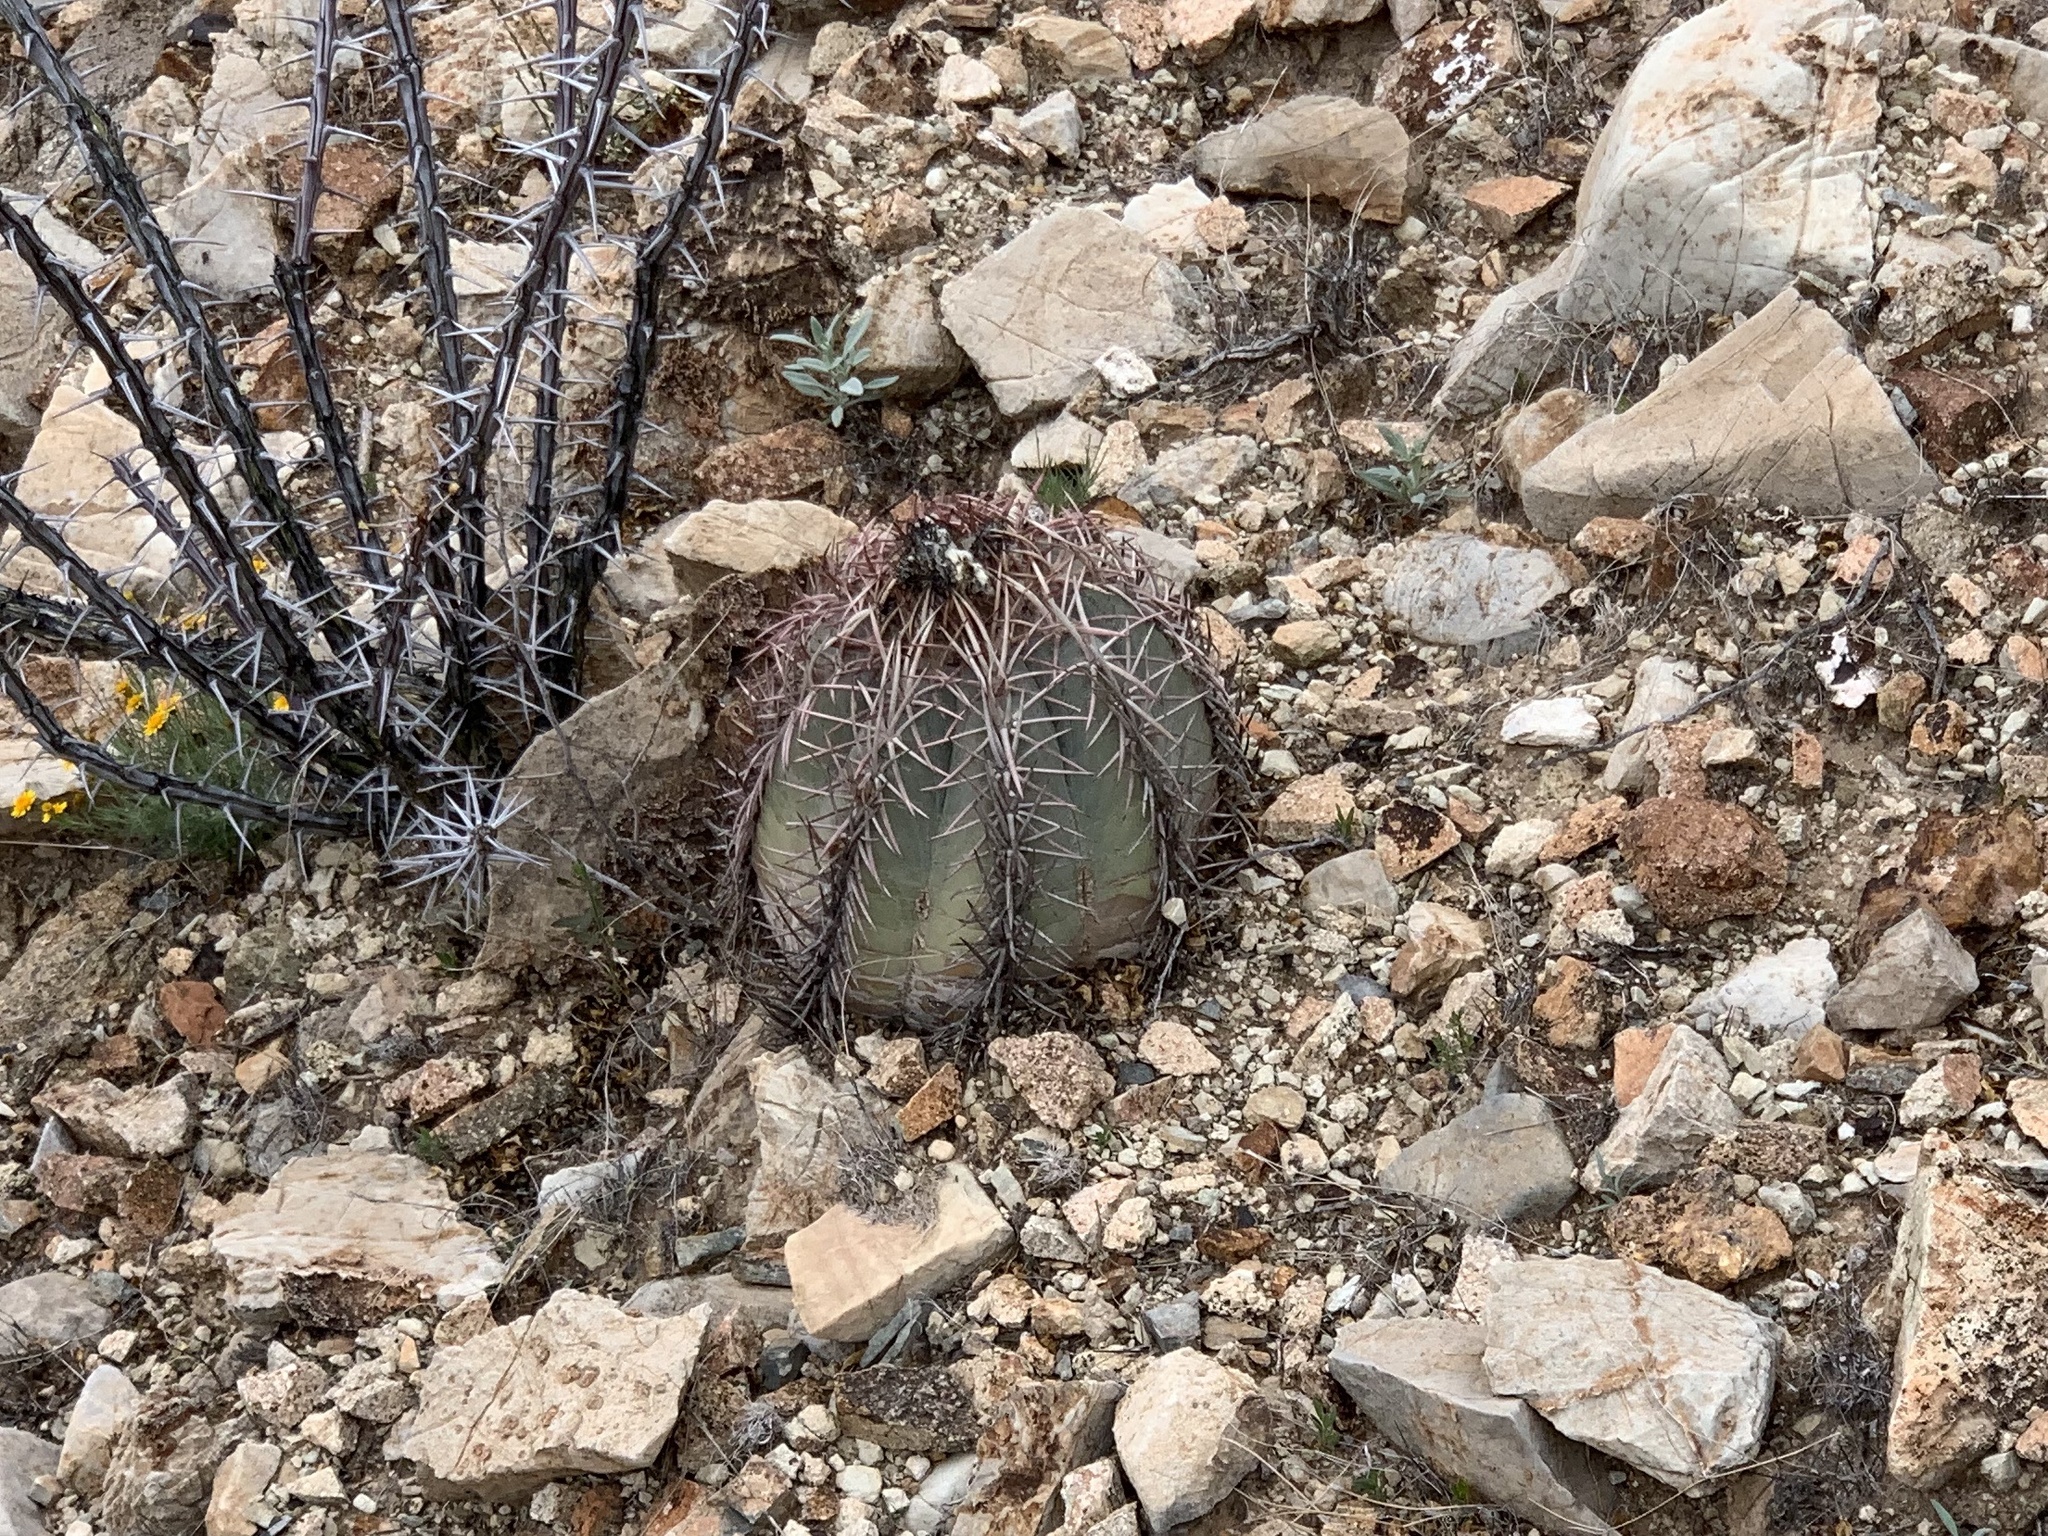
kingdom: Plantae
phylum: Tracheophyta
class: Magnoliopsida
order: Caryophyllales
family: Cactaceae
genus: Echinocactus
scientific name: Echinocactus horizonthalonius
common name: Devilshead
